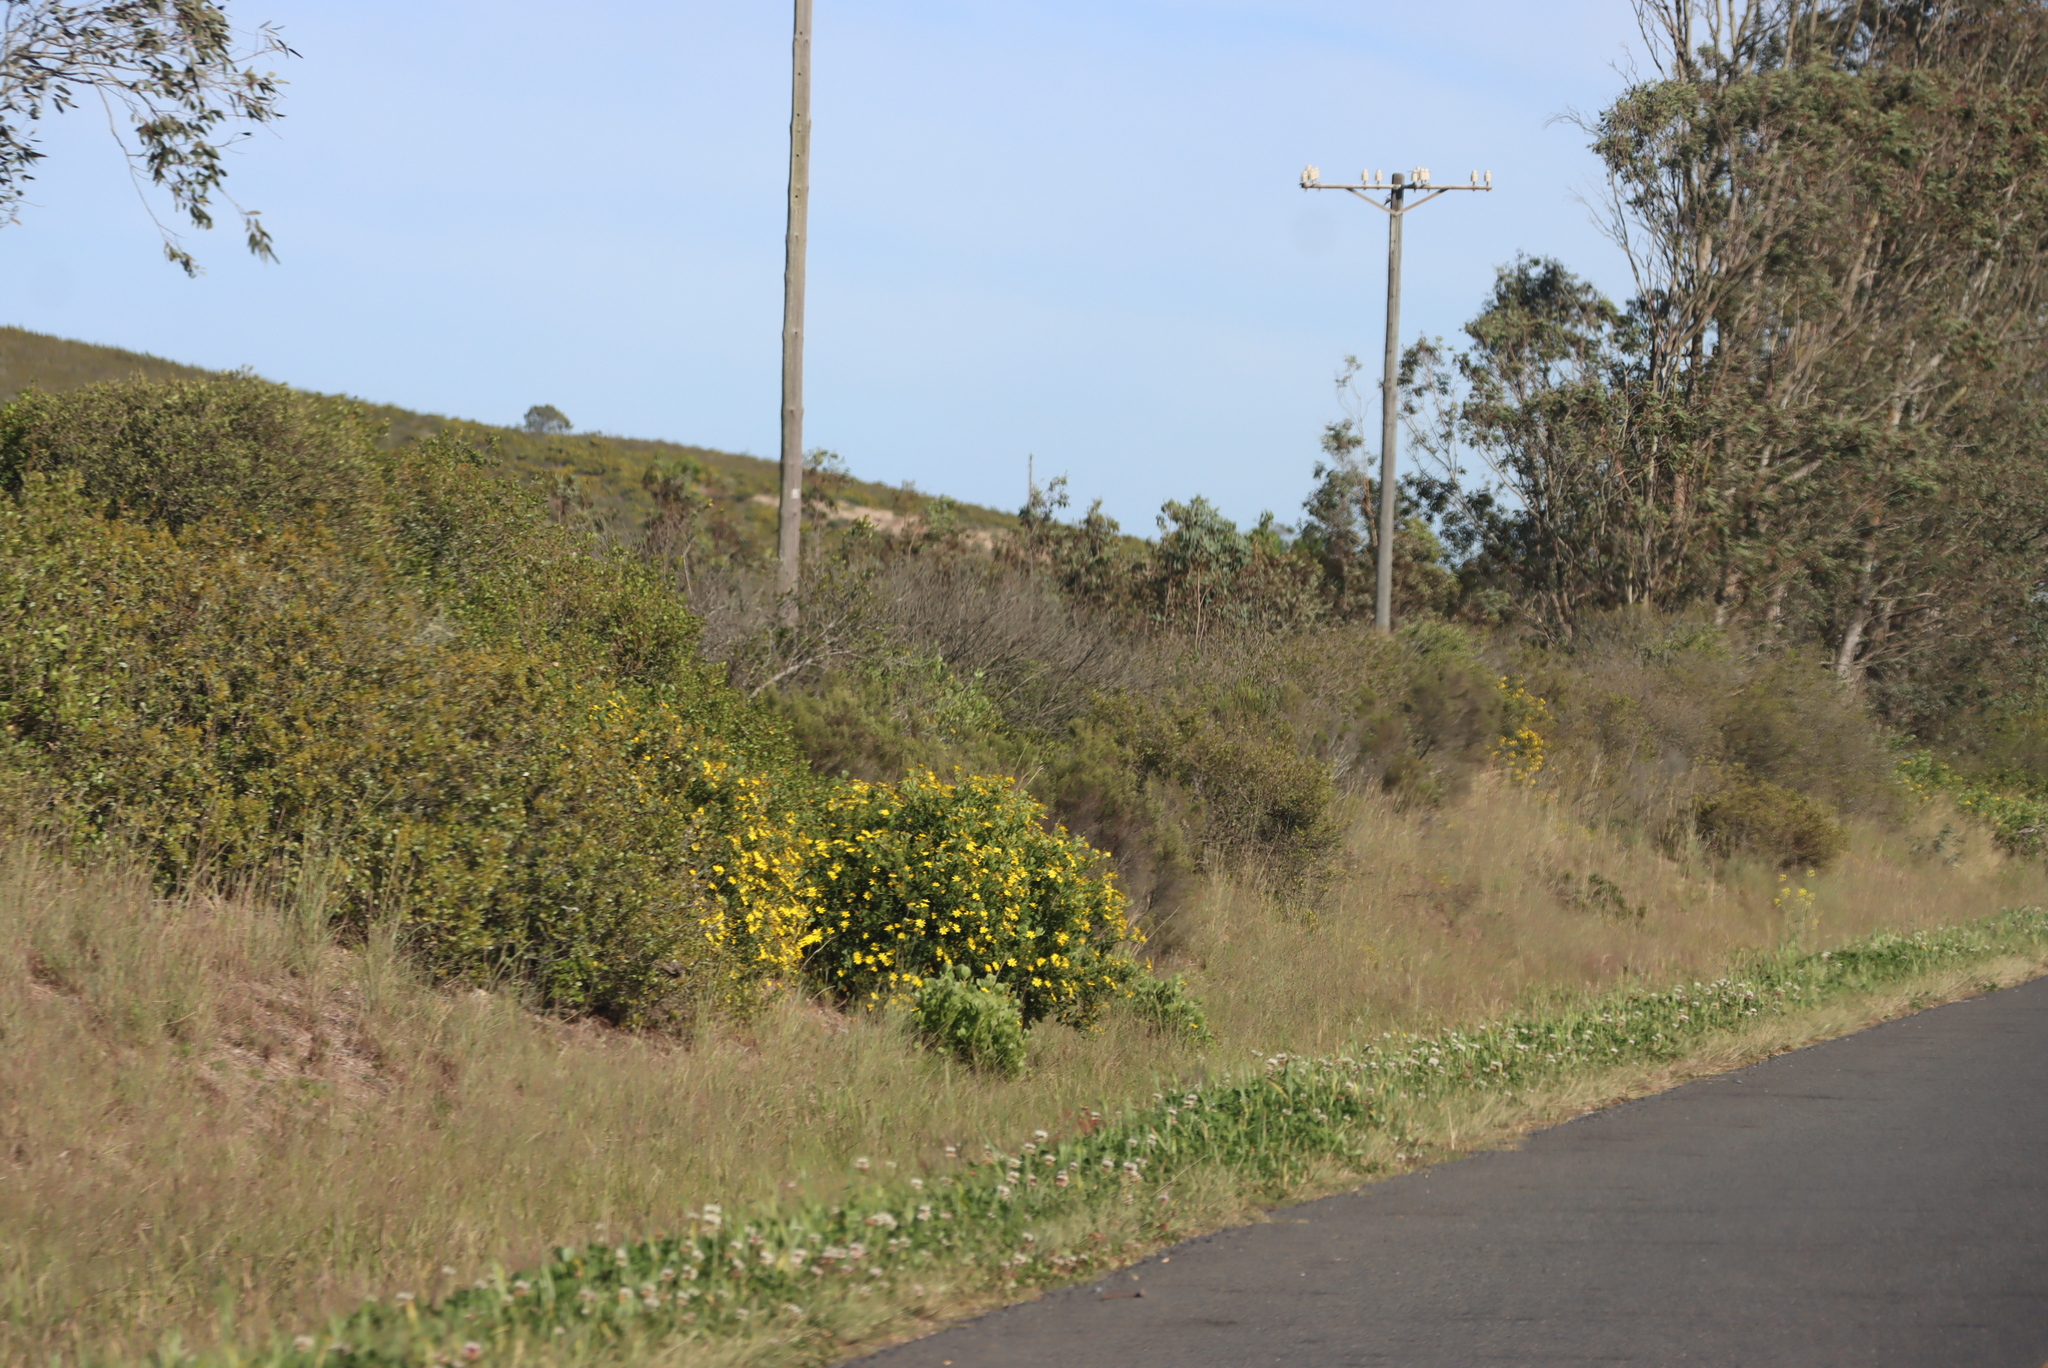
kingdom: Plantae
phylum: Tracheophyta
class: Magnoliopsida
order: Asterales
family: Asteraceae
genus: Osteospermum
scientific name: Osteospermum moniliferum
